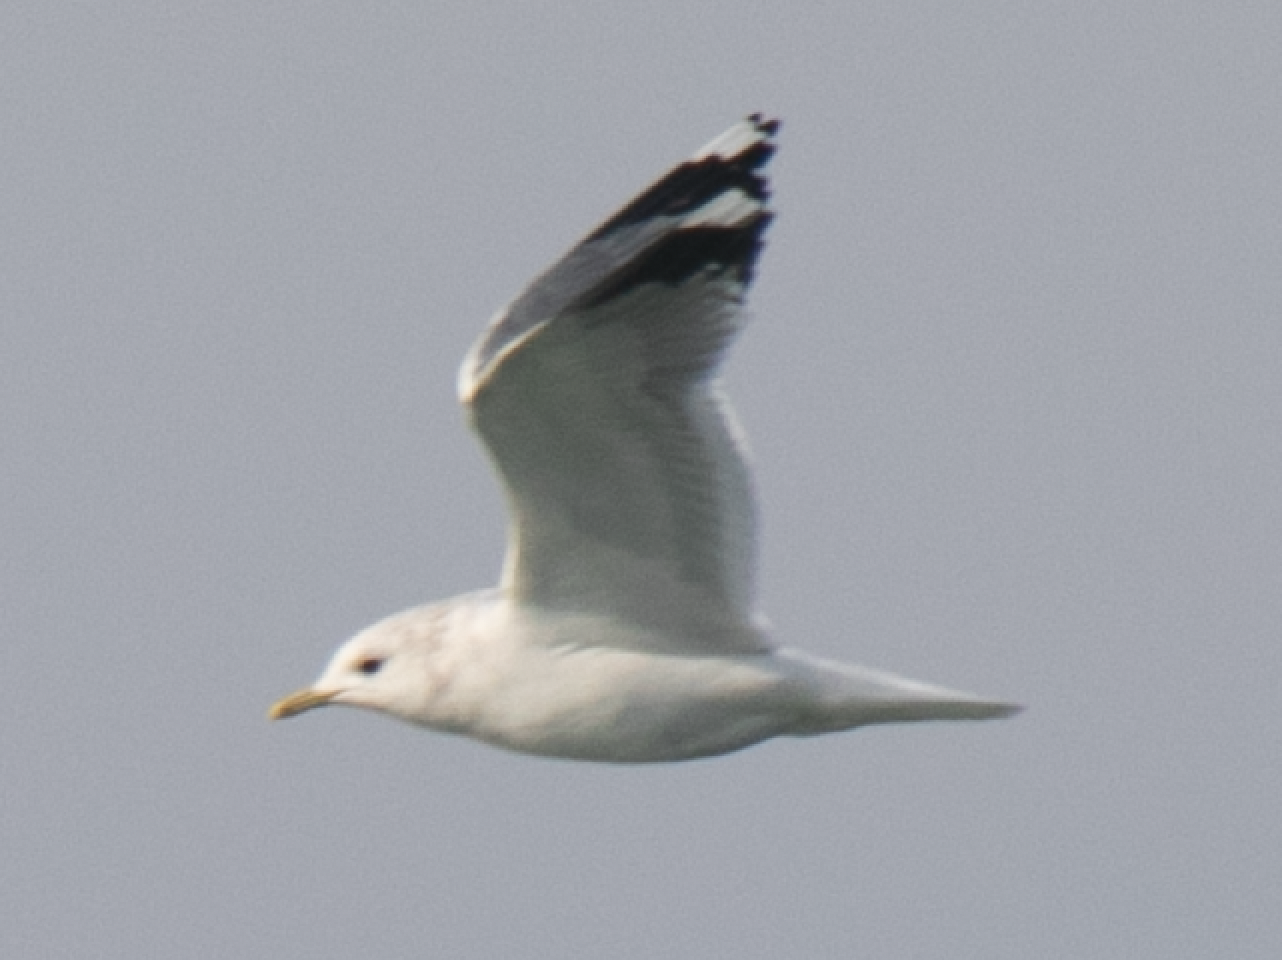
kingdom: Animalia
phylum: Chordata
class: Aves
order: Charadriiformes
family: Laridae
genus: Larus
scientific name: Larus canus
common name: Mew gull
